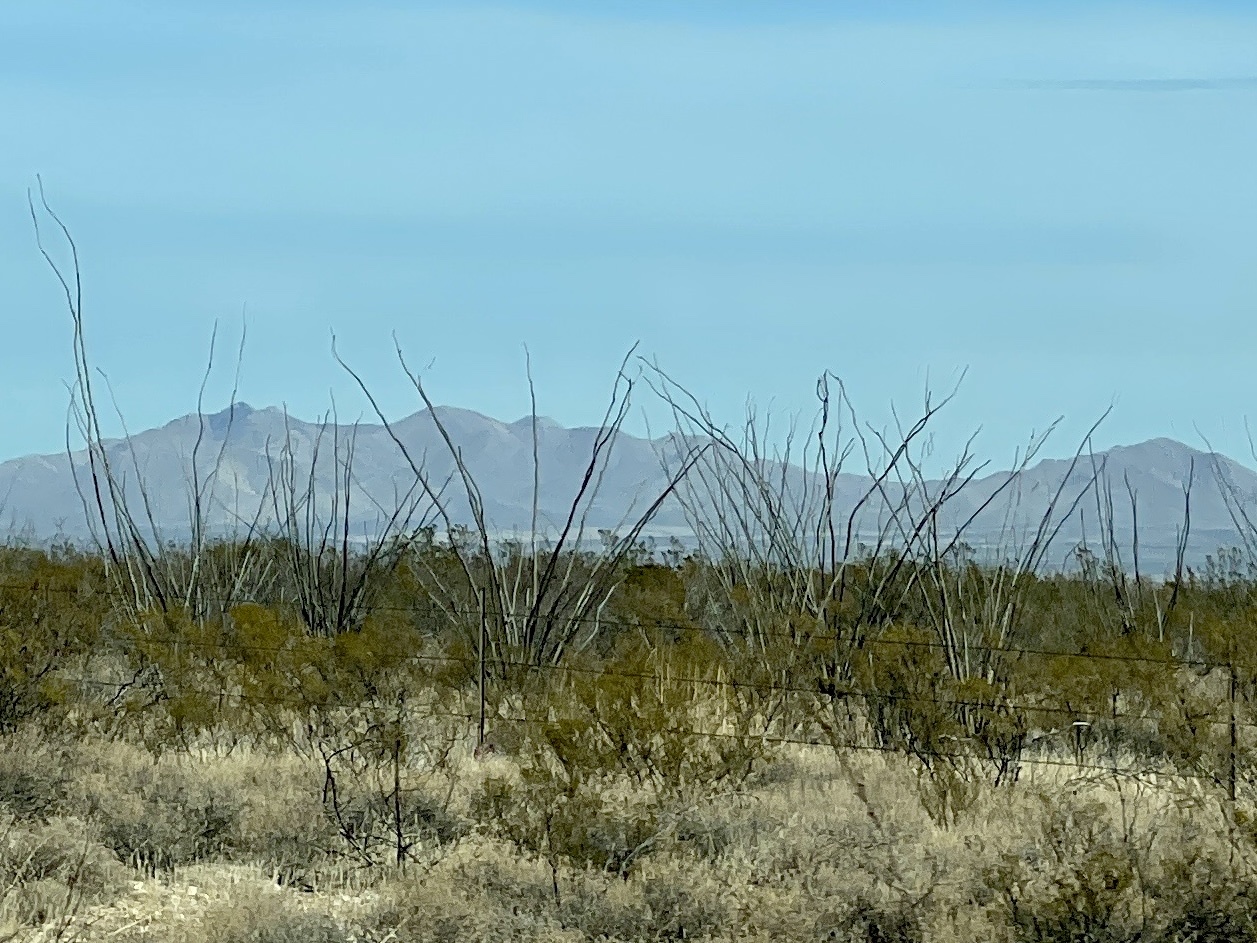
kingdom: Plantae
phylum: Tracheophyta
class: Magnoliopsida
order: Ericales
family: Fouquieriaceae
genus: Fouquieria
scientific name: Fouquieria splendens
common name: Vine-cactus
